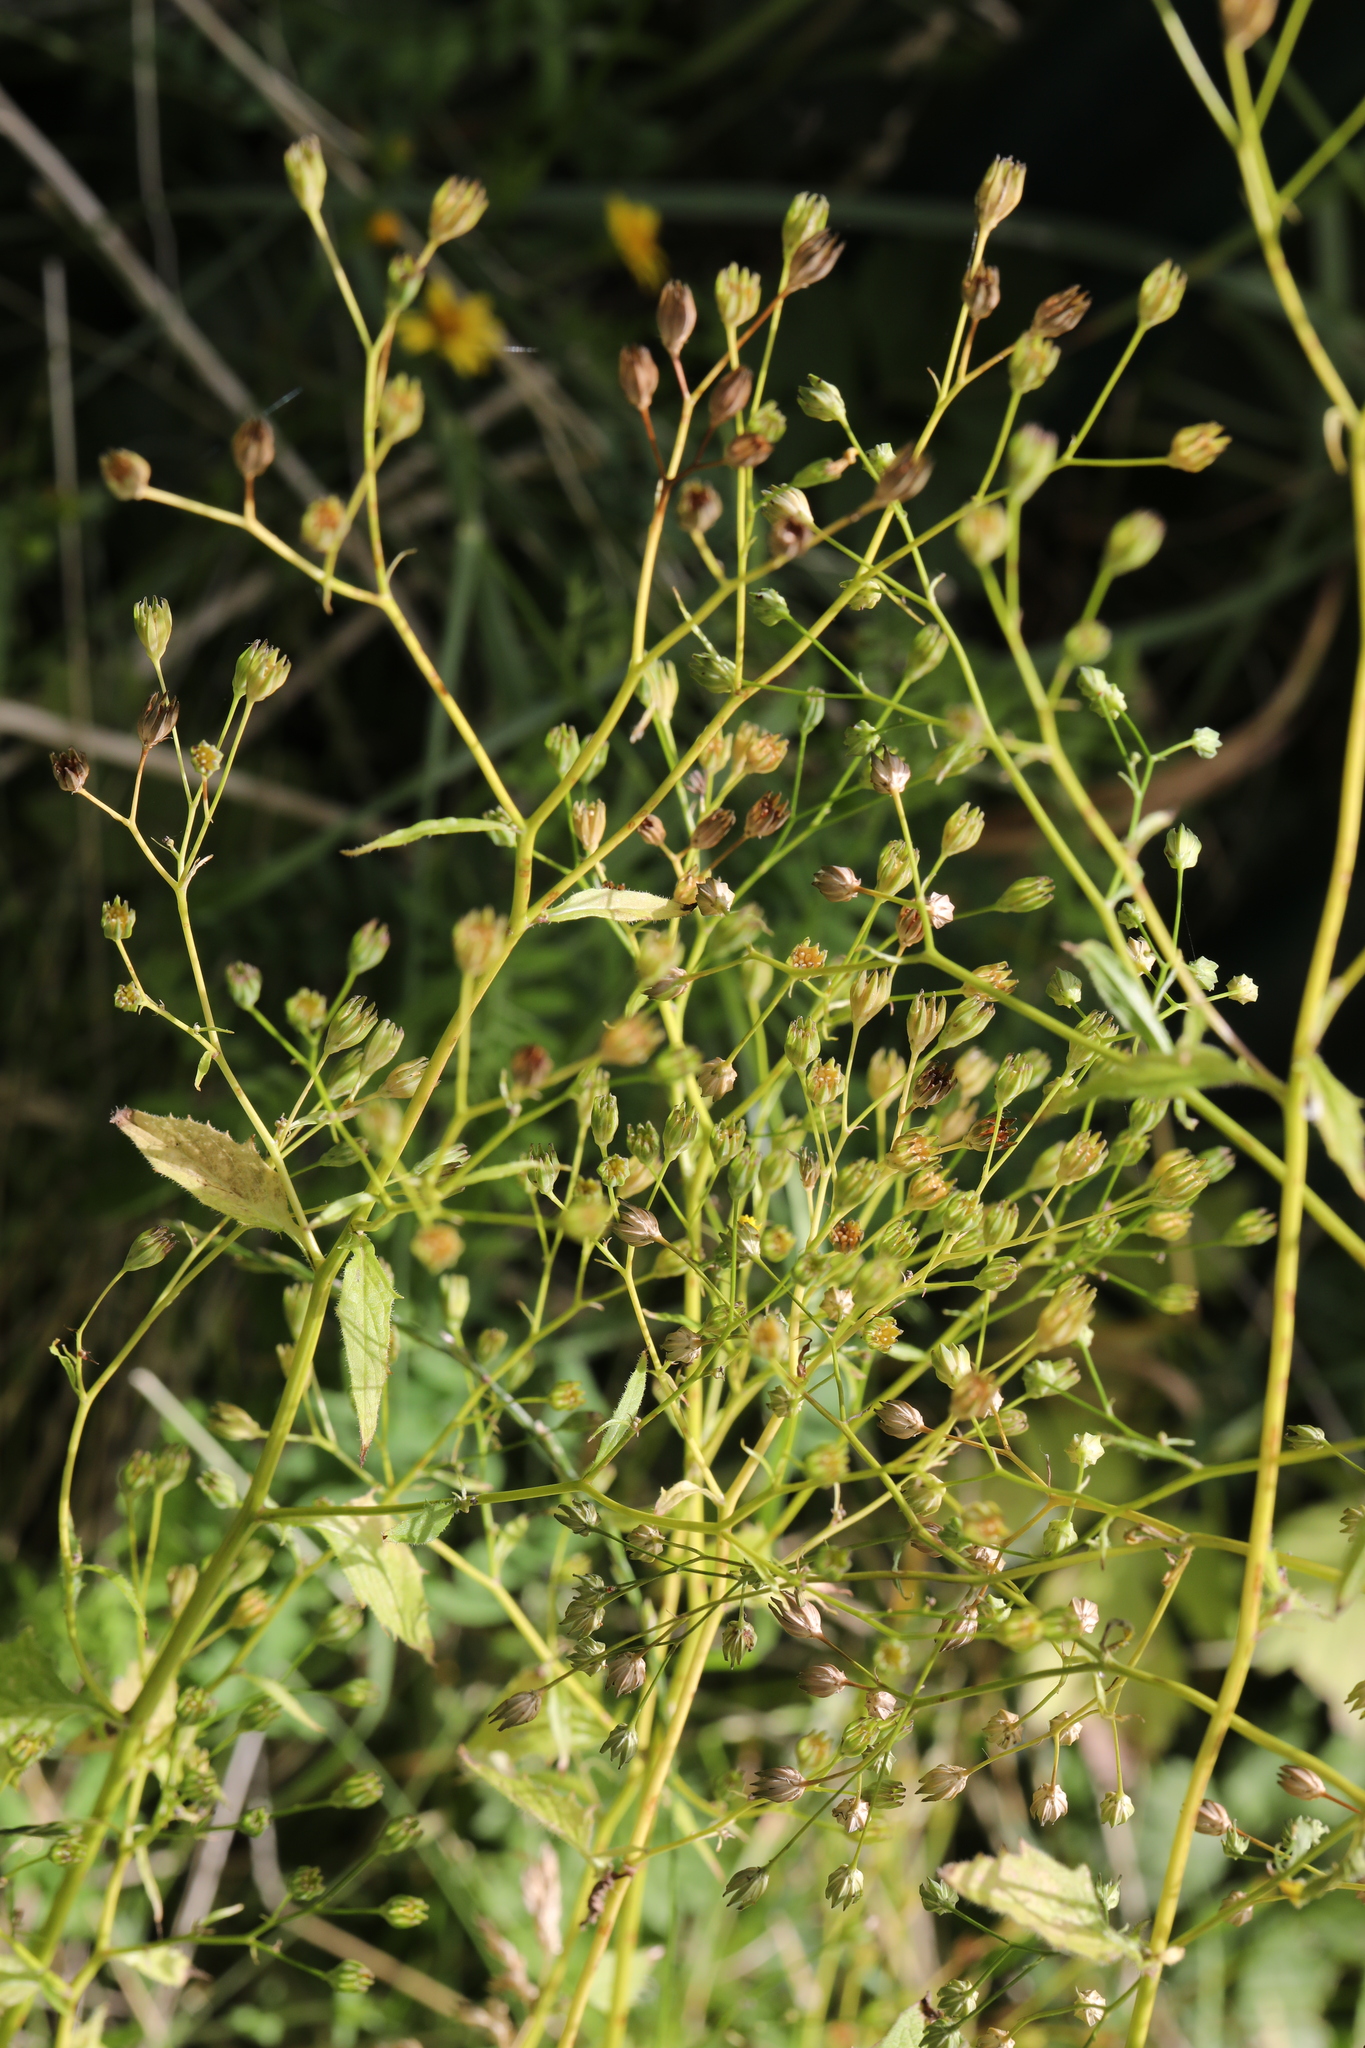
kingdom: Plantae
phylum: Tracheophyta
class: Magnoliopsida
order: Asterales
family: Asteraceae
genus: Lapsana
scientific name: Lapsana communis
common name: Nipplewort
